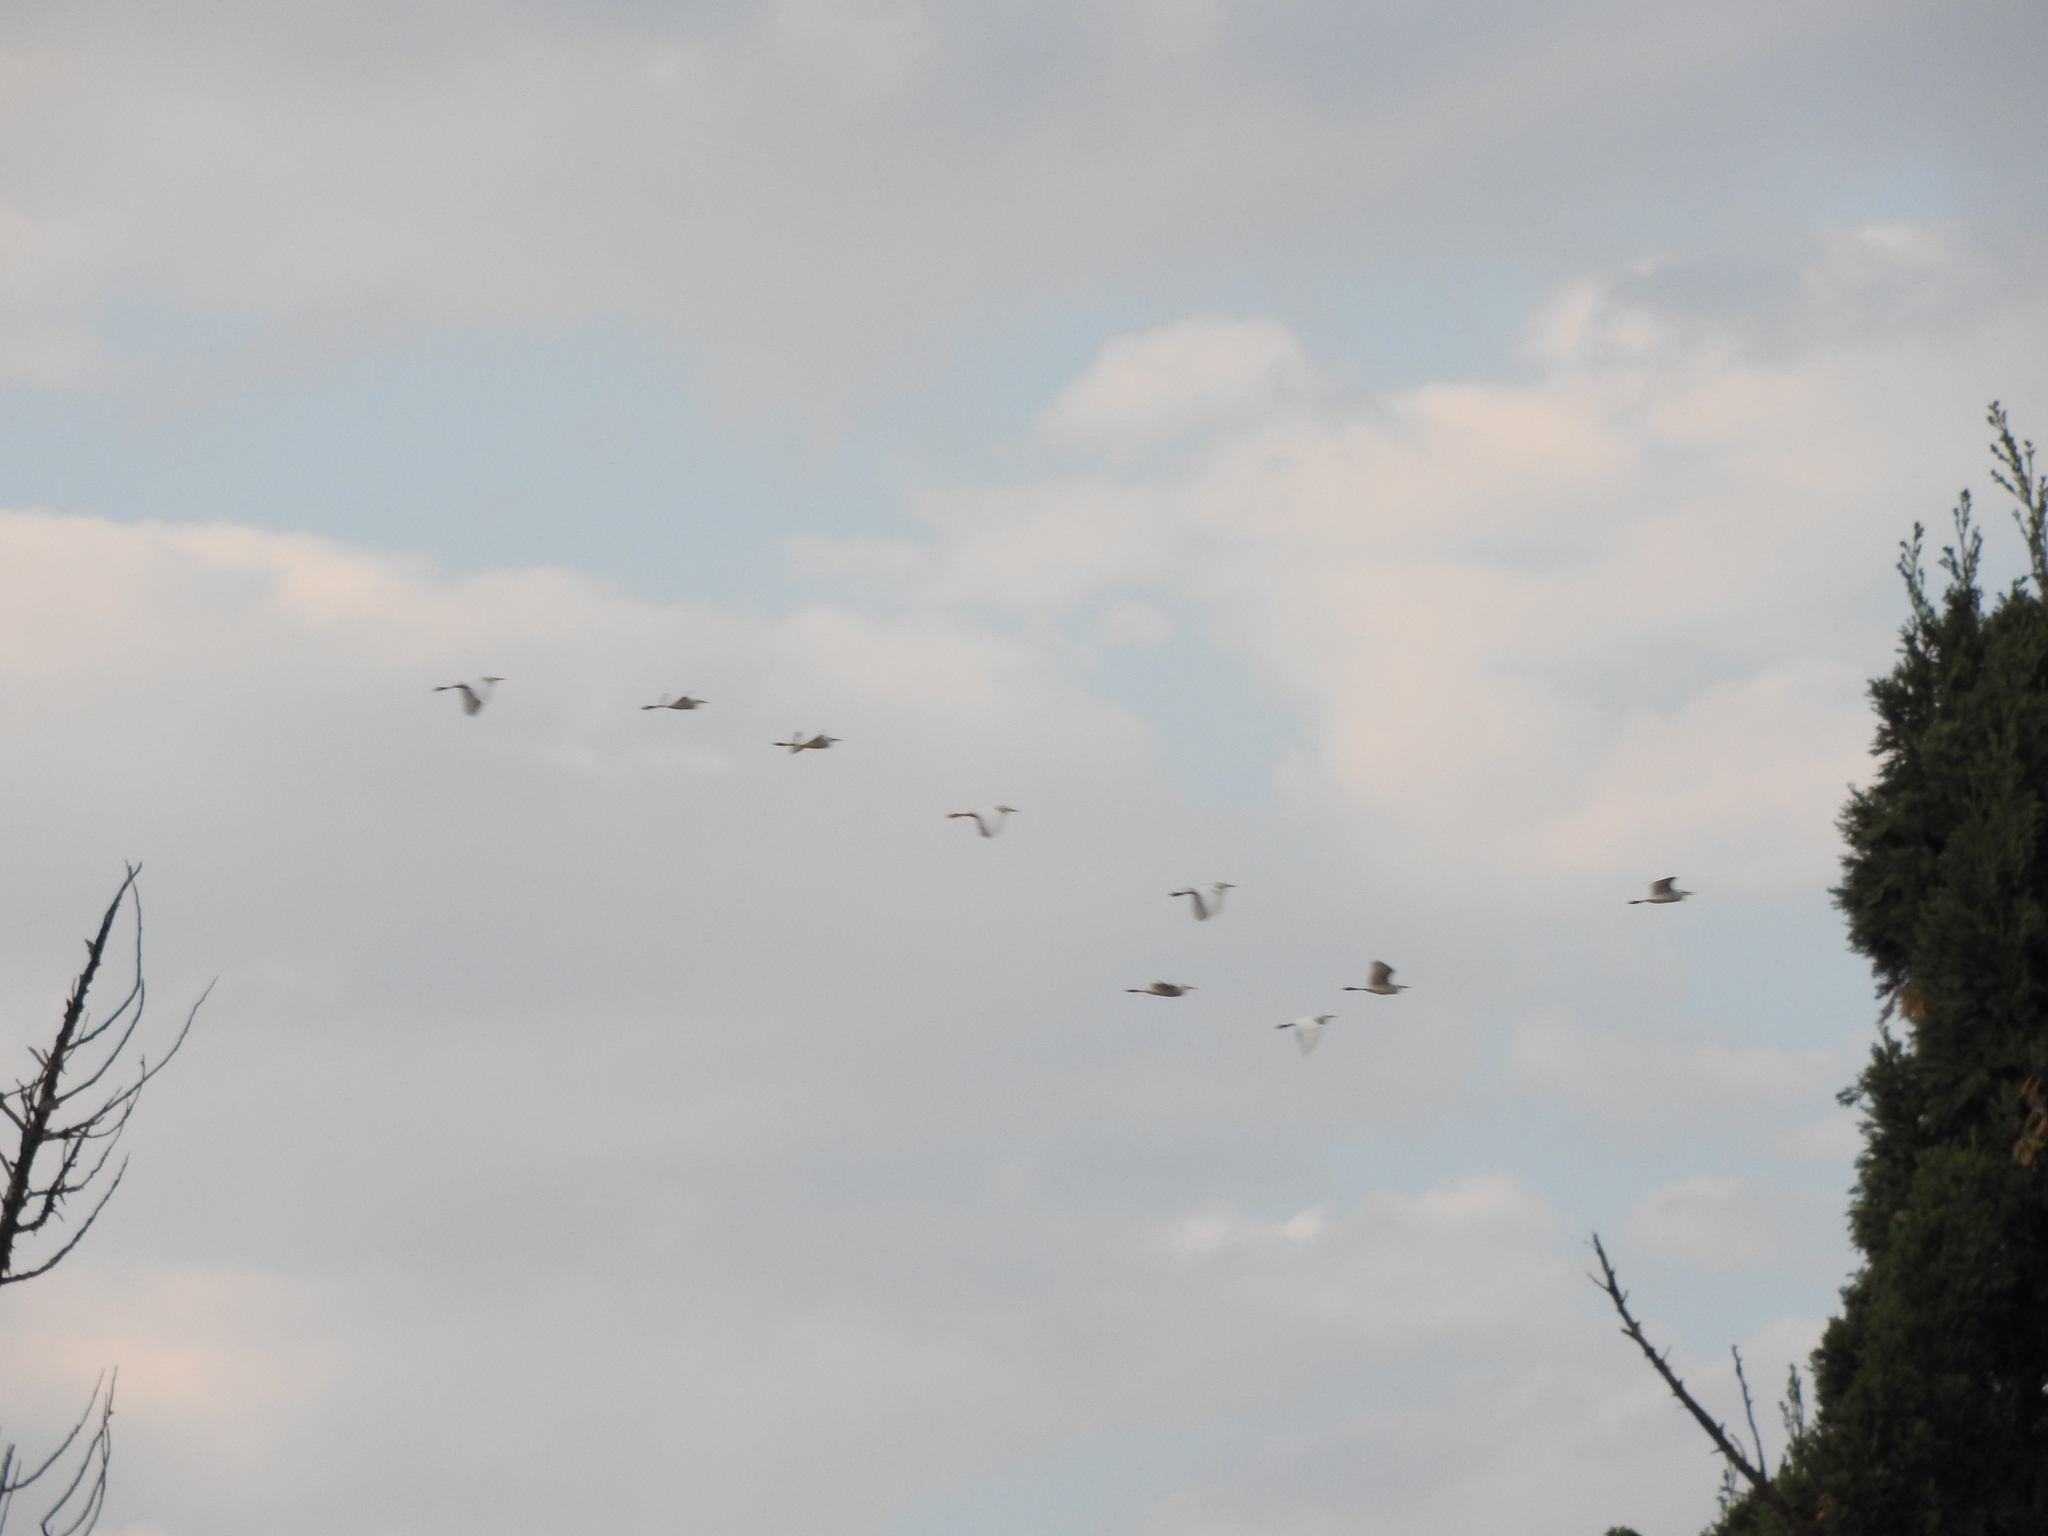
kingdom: Animalia
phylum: Chordata
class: Aves
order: Pelecaniformes
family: Ardeidae
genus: Bubulcus
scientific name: Bubulcus ibis
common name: Cattle egret
